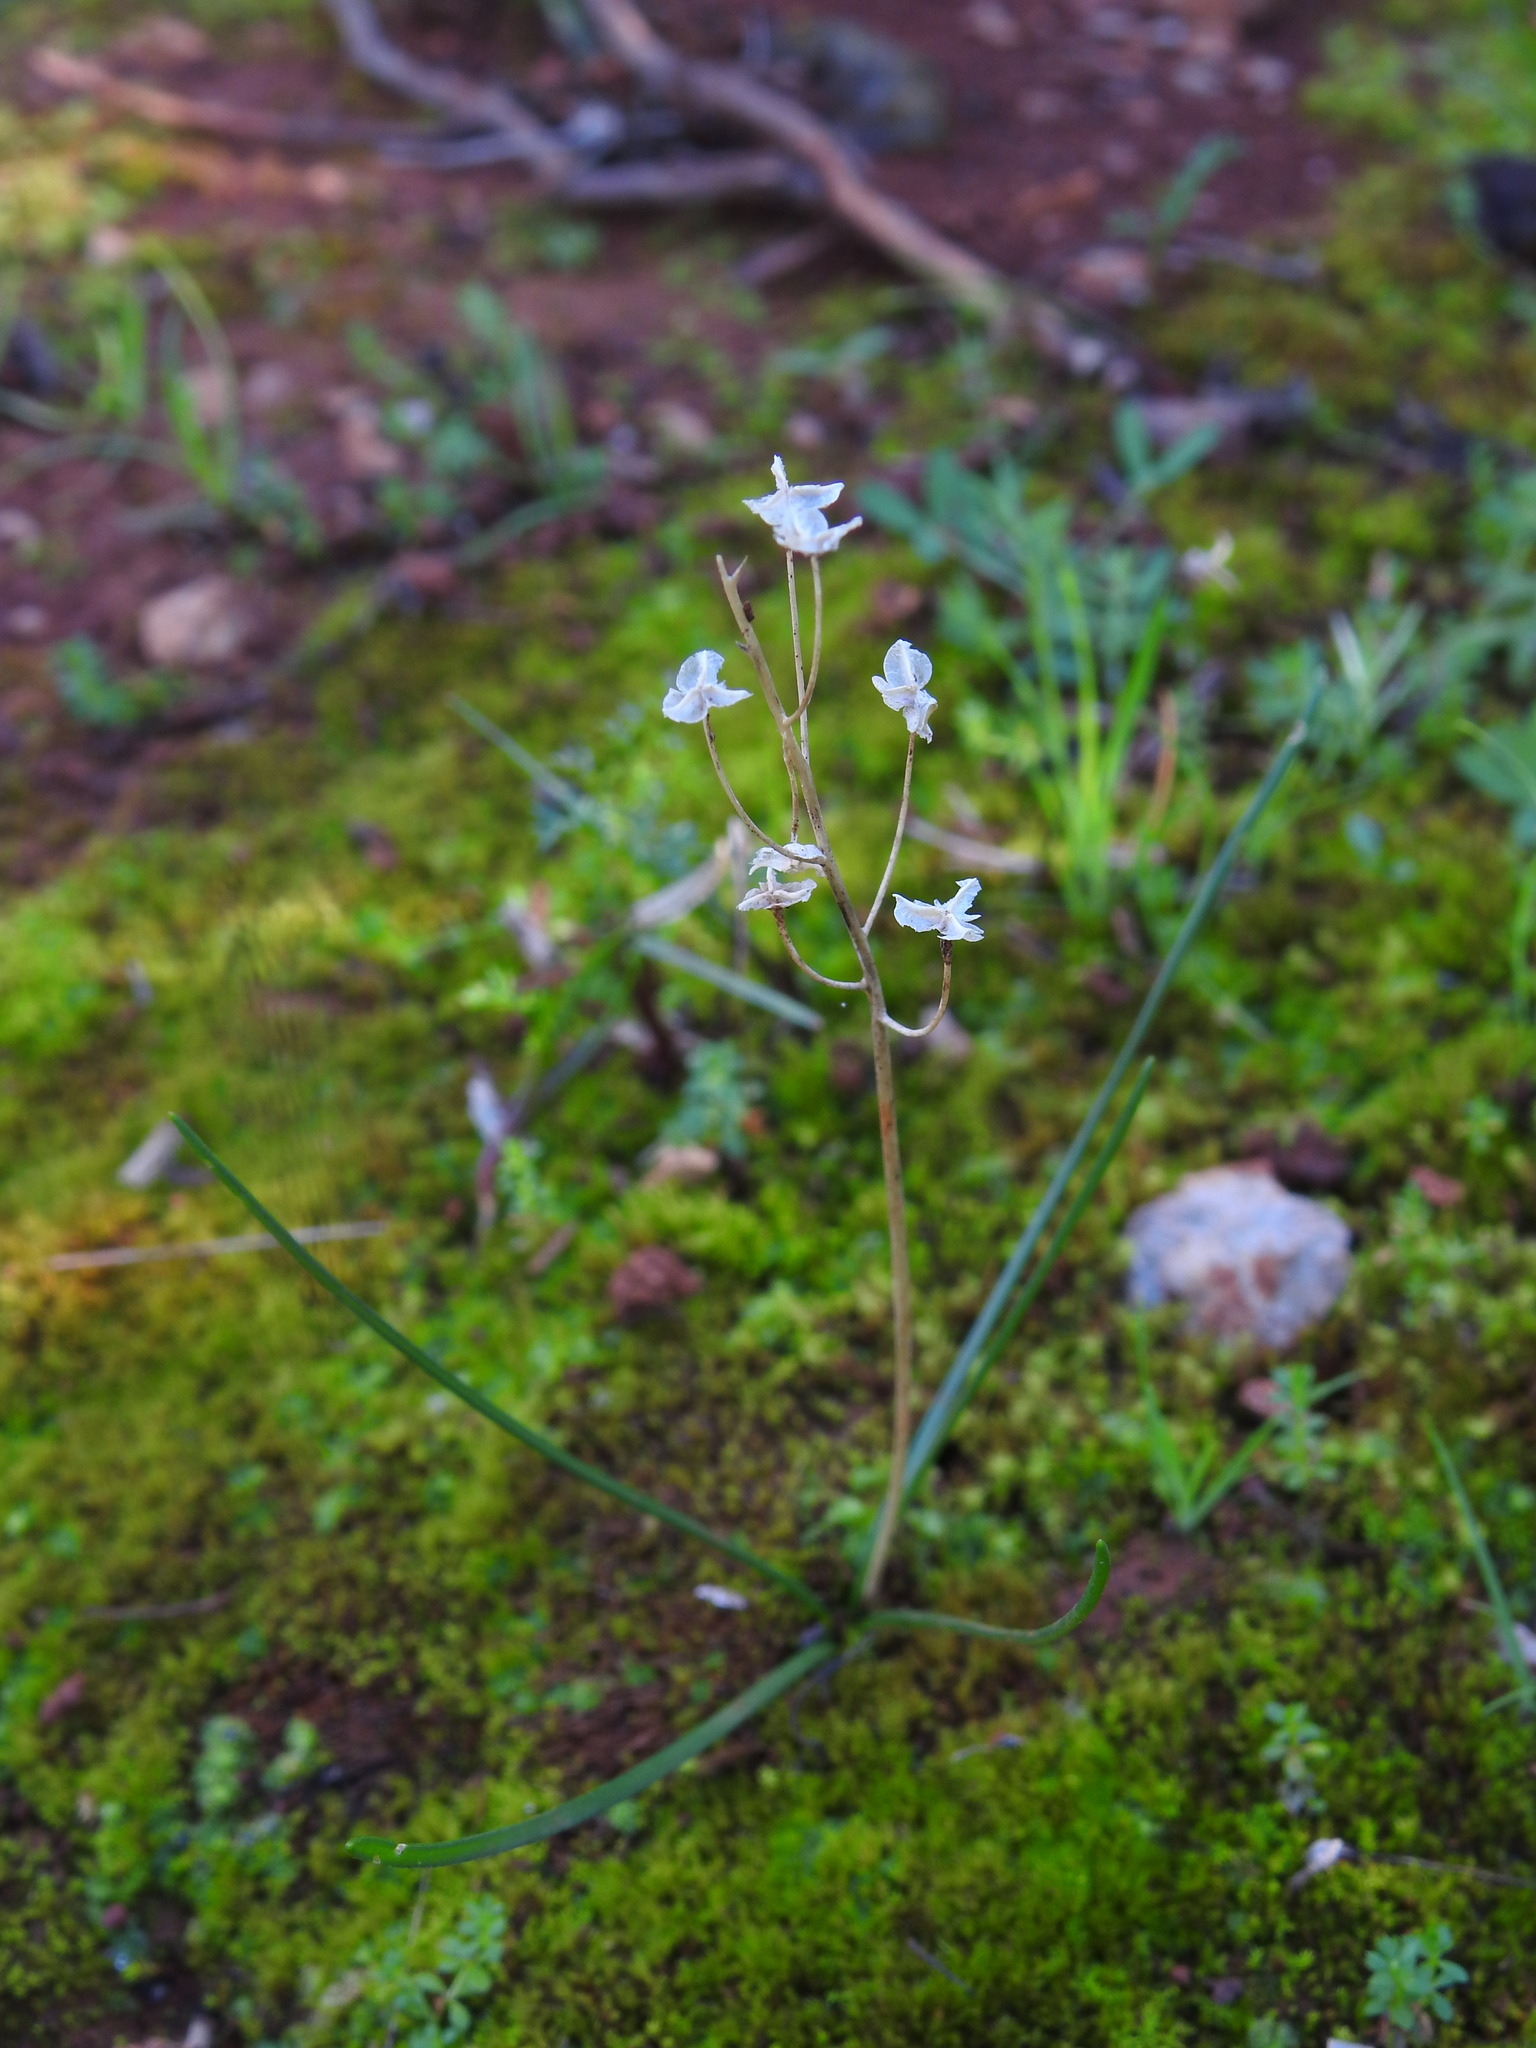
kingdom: Plantae
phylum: Tracheophyta
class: Liliopsida
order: Asparagales
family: Asparagaceae
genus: Prospero
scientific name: Prospero autumnale
